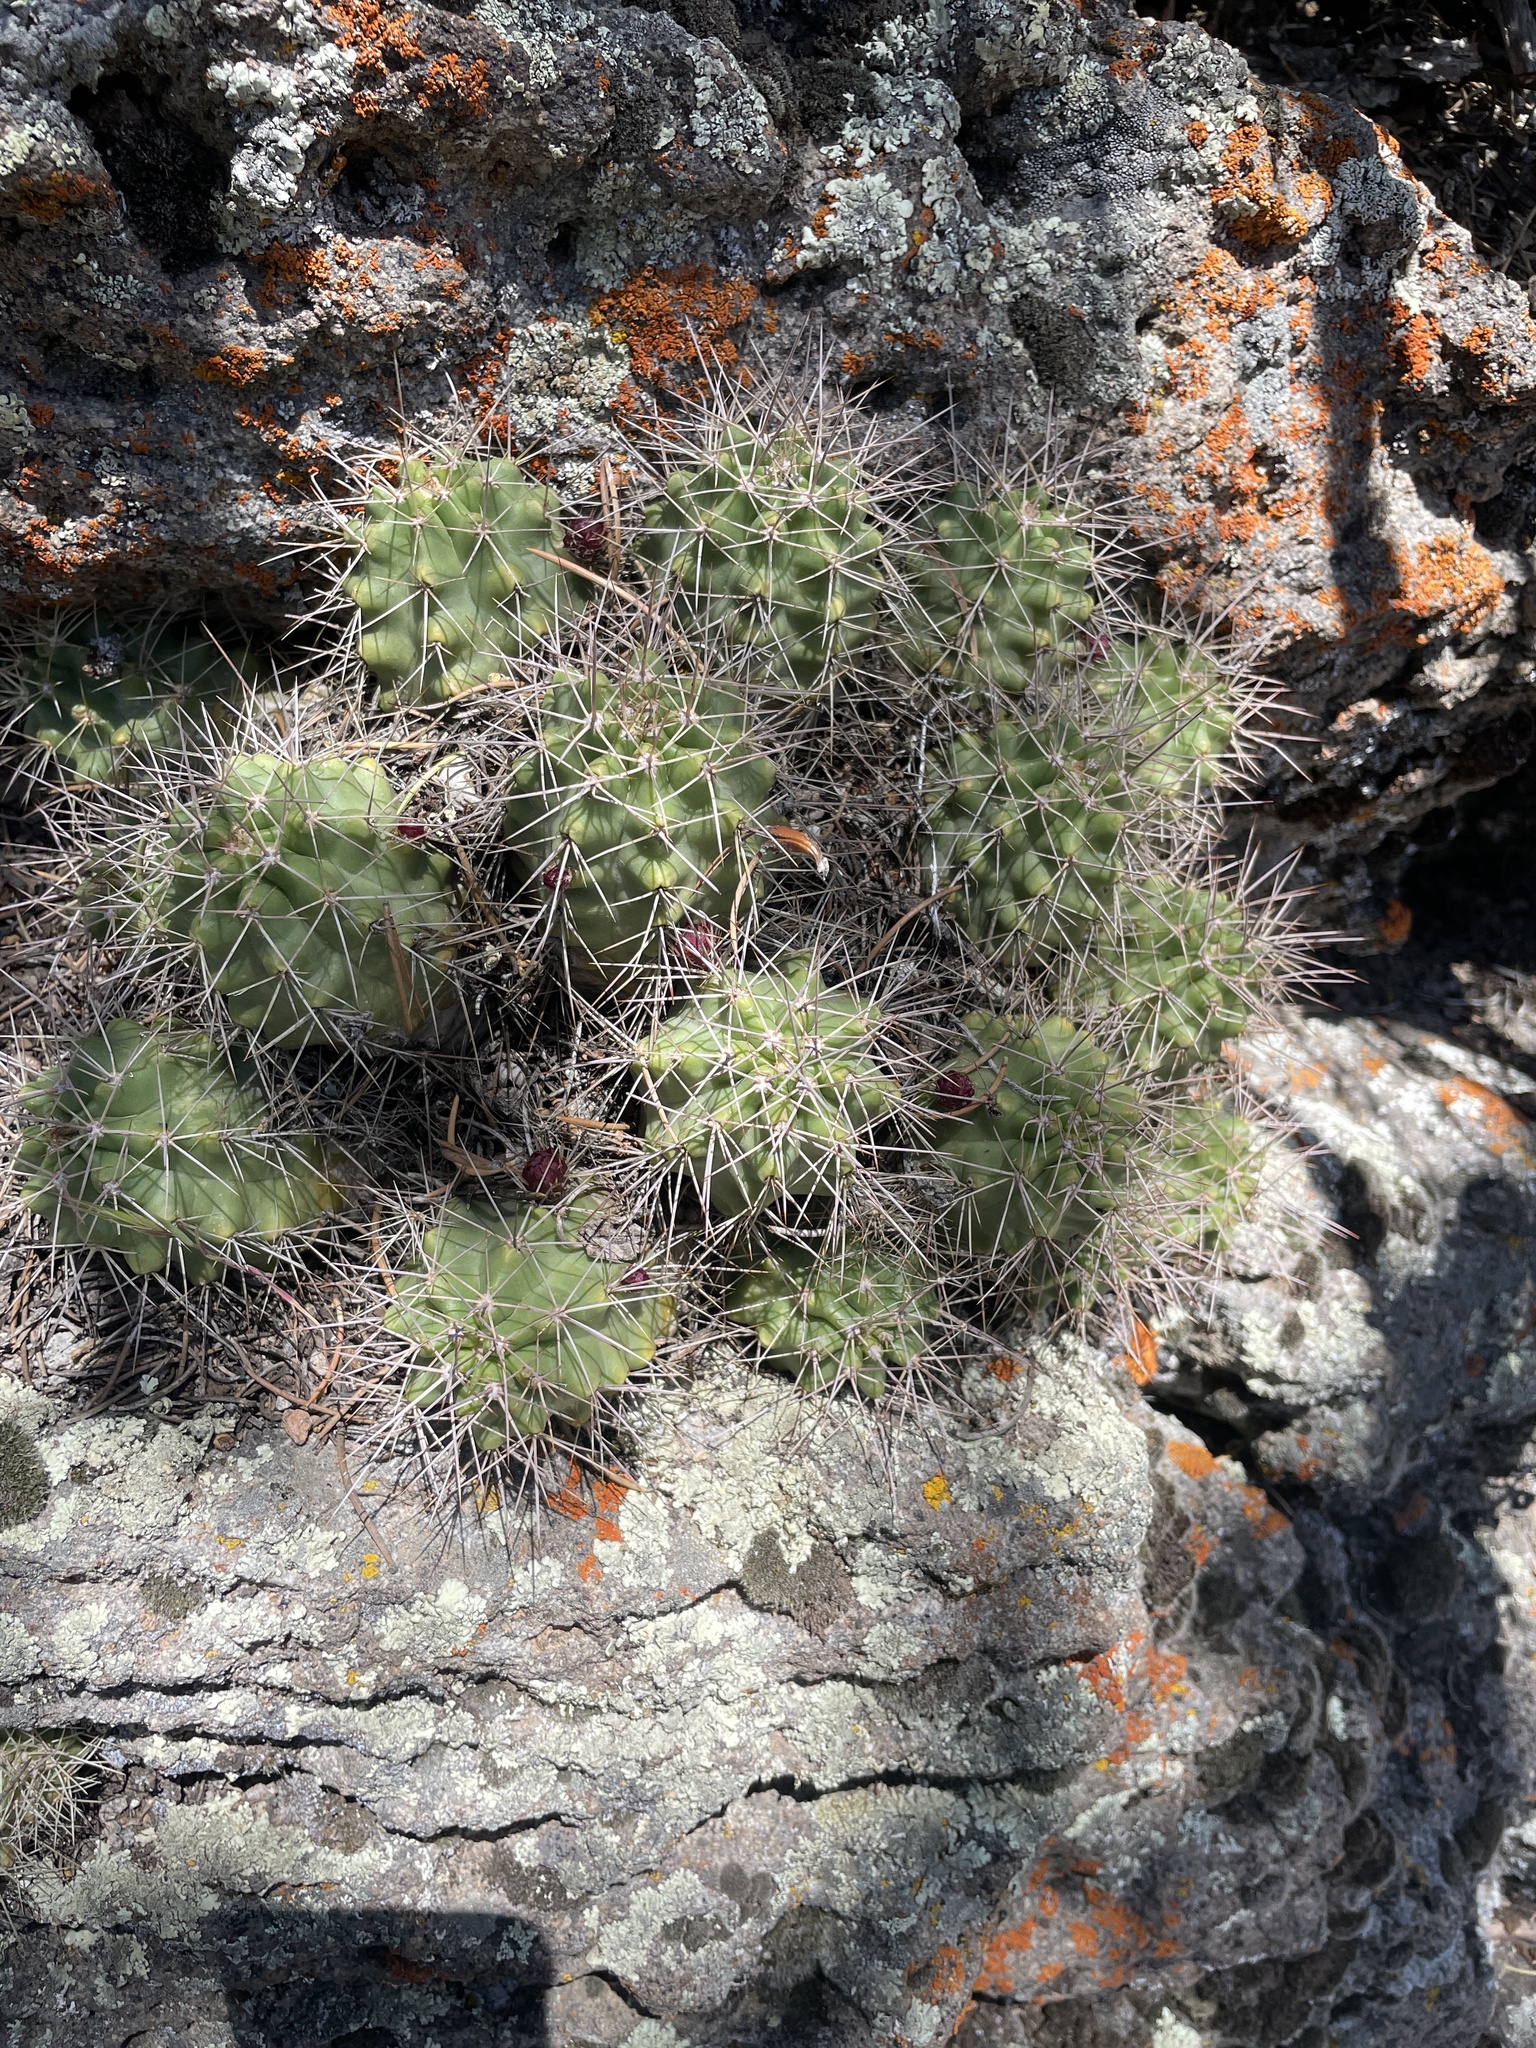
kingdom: Plantae
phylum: Tracheophyta
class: Magnoliopsida
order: Caryophyllales
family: Cactaceae
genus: Echinocereus
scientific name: Echinocereus triglochidiatus
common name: Claretcup hedgehog
